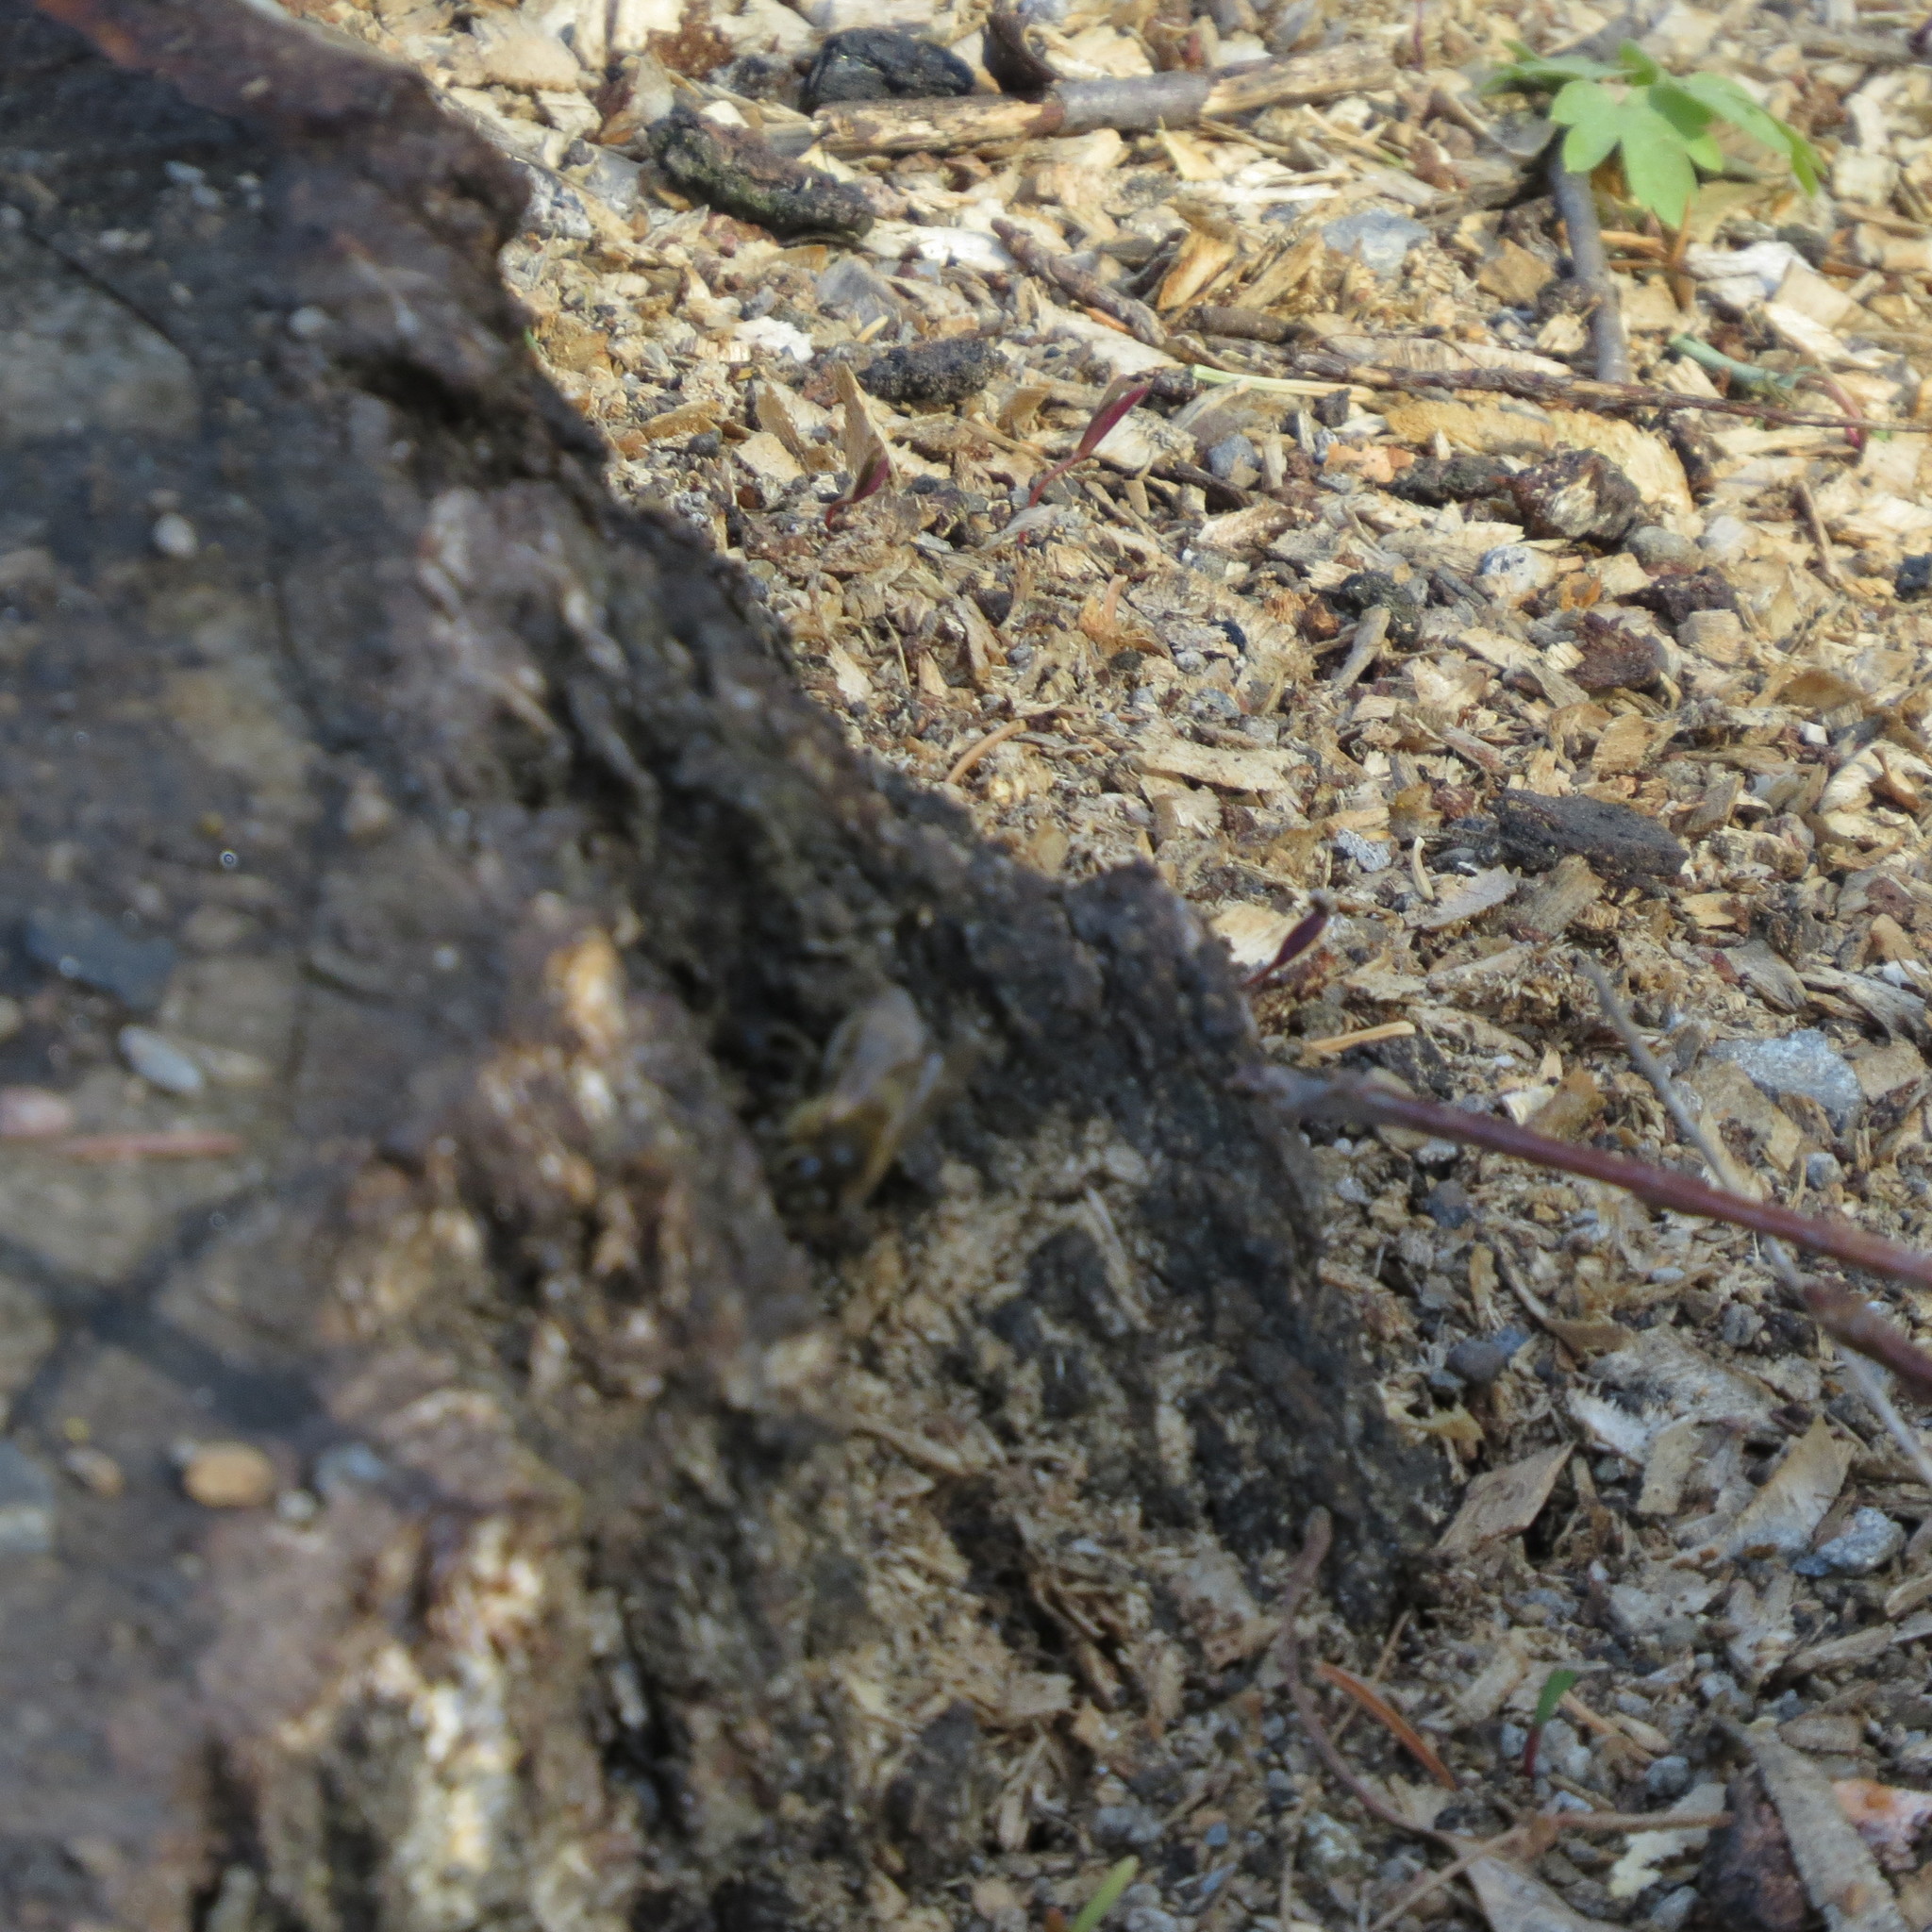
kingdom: Animalia
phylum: Arthropoda
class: Insecta
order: Hymenoptera
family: Apidae
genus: Apis
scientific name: Apis mellifera
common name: Honey bee
